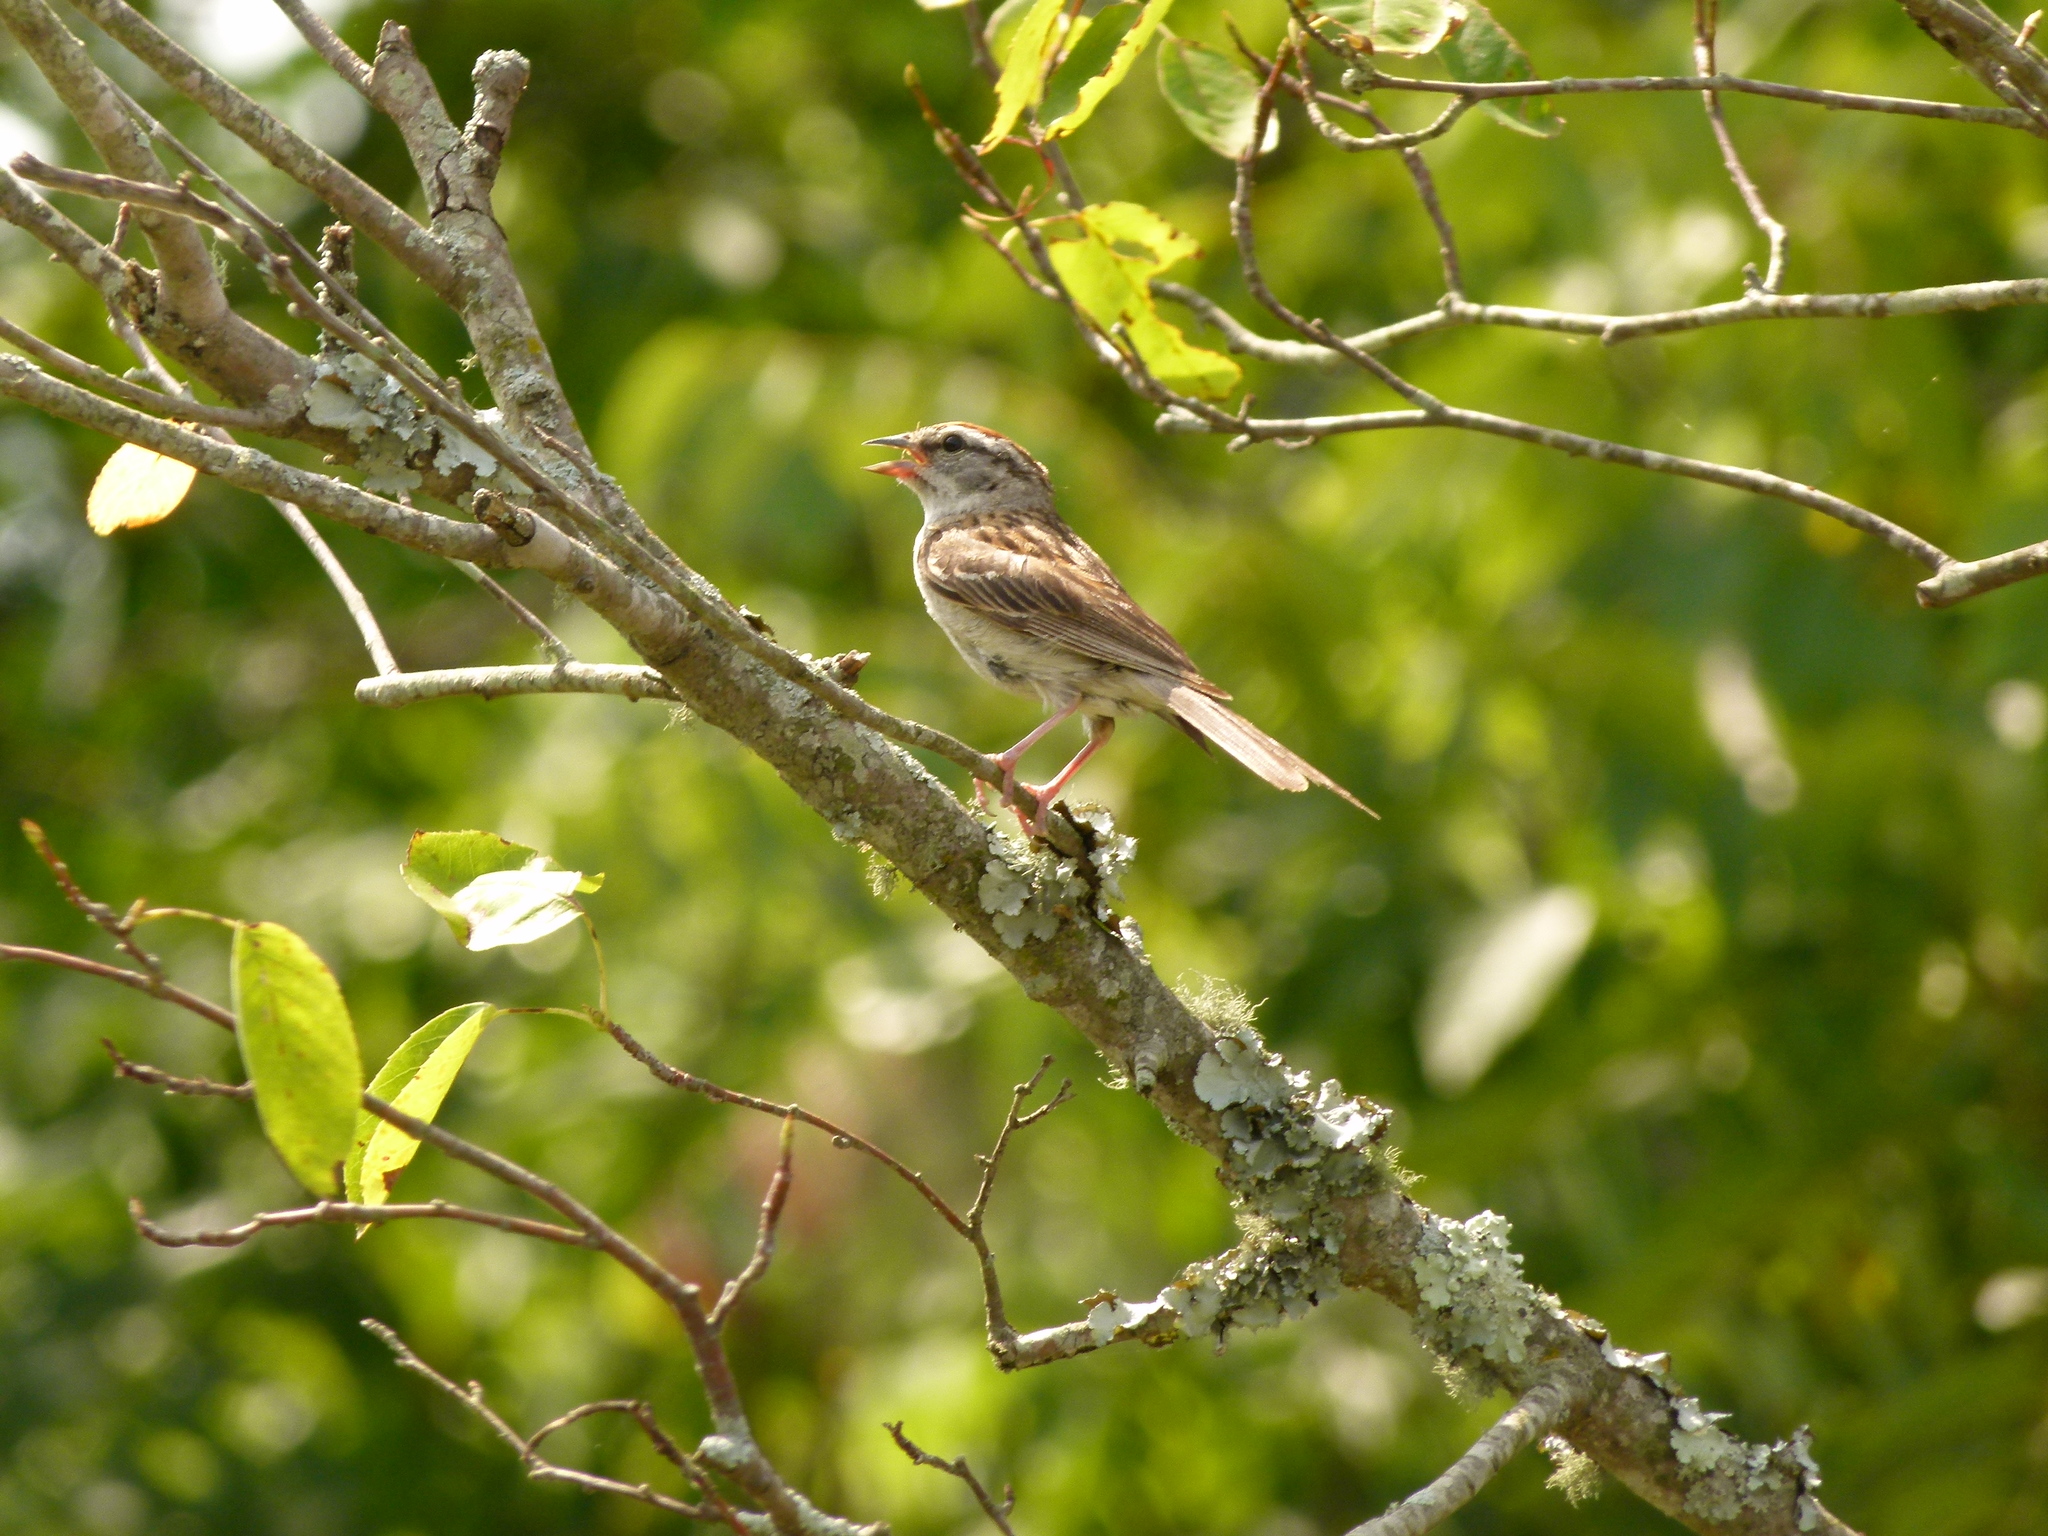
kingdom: Animalia
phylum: Chordata
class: Aves
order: Passeriformes
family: Passerellidae
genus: Spizella
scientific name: Spizella passerina
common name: Chipping sparrow
